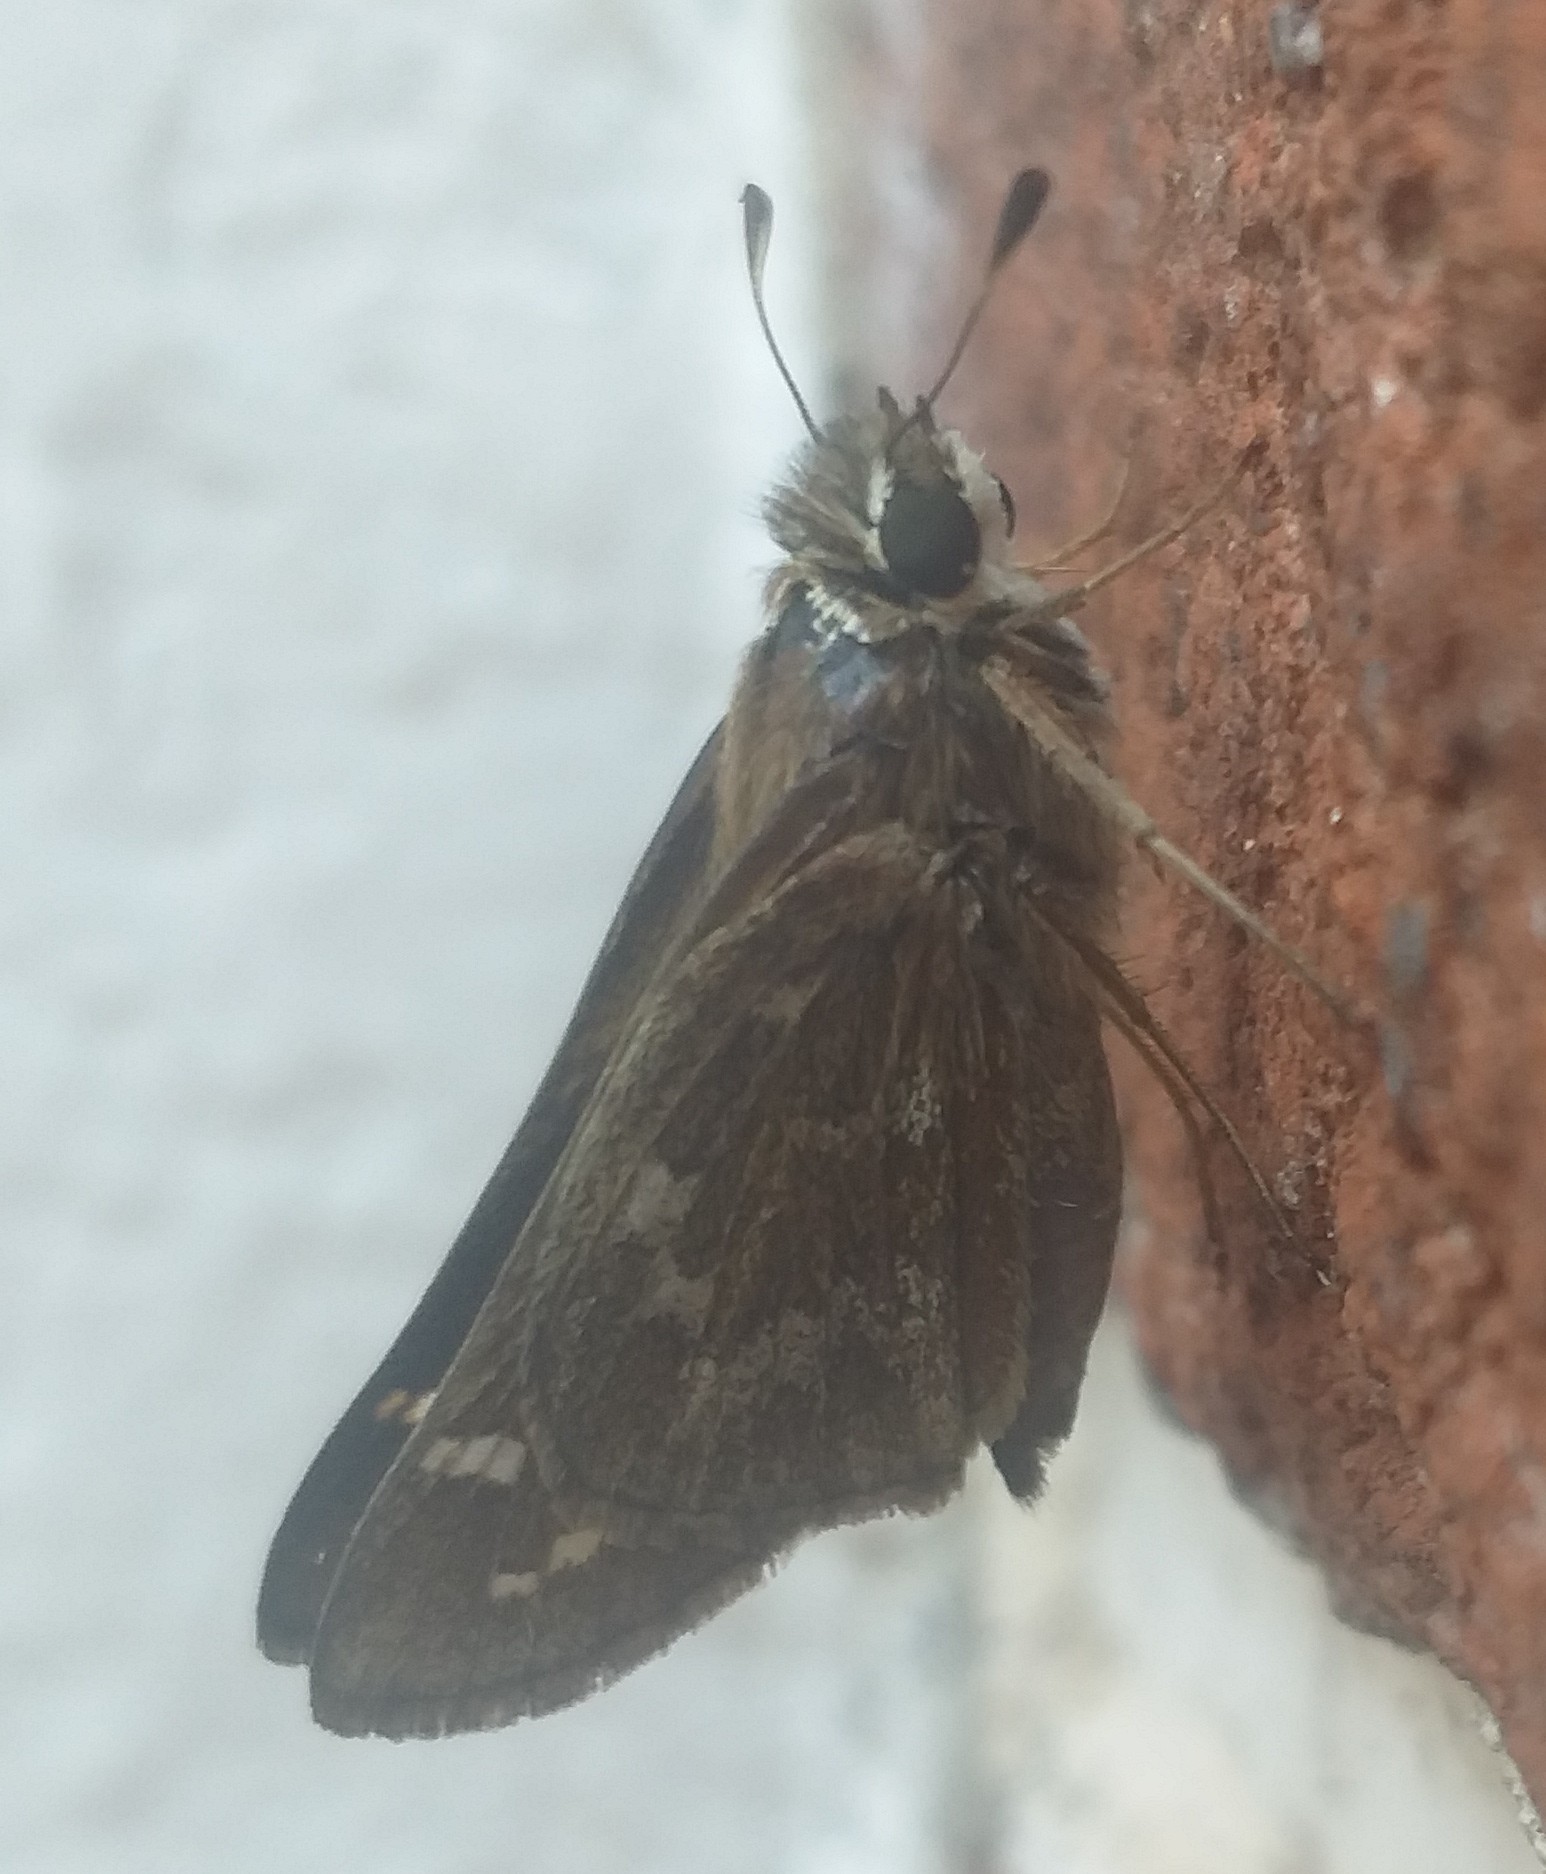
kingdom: Animalia
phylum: Arthropoda
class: Insecta
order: Lepidoptera
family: Hesperiidae
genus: Atalopedes
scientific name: Atalopedes
